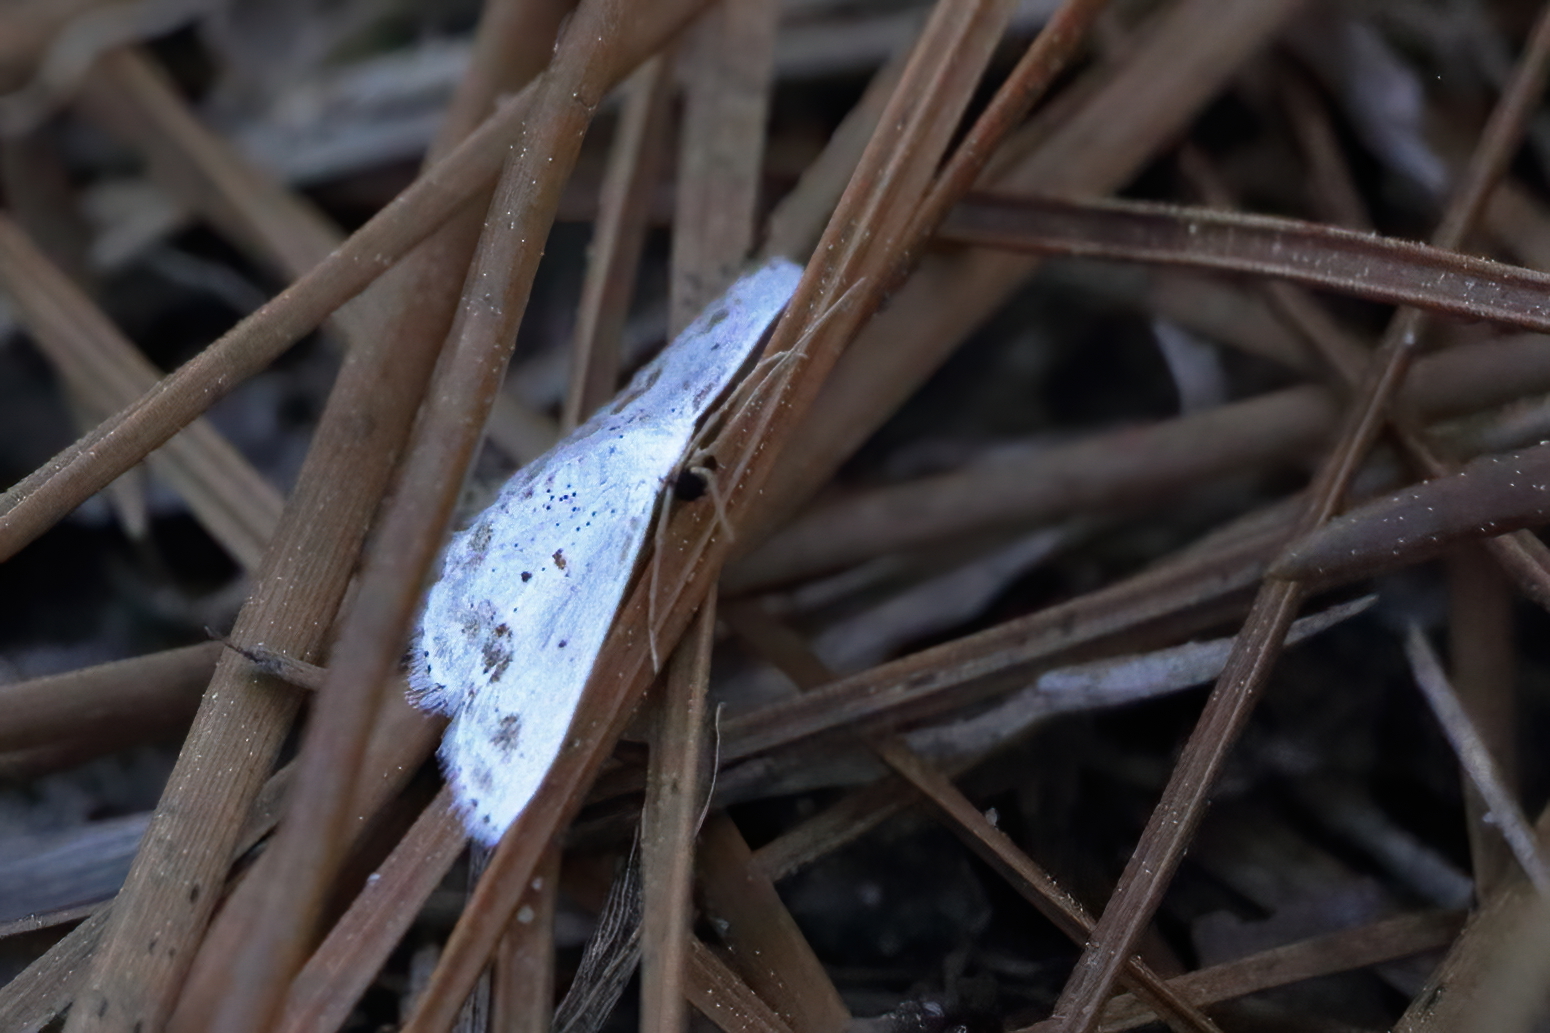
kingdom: Animalia
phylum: Arthropoda
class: Insecta
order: Lepidoptera
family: Geometridae
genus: Scopula
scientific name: Scopula lautaria
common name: Small frosted wave moth
